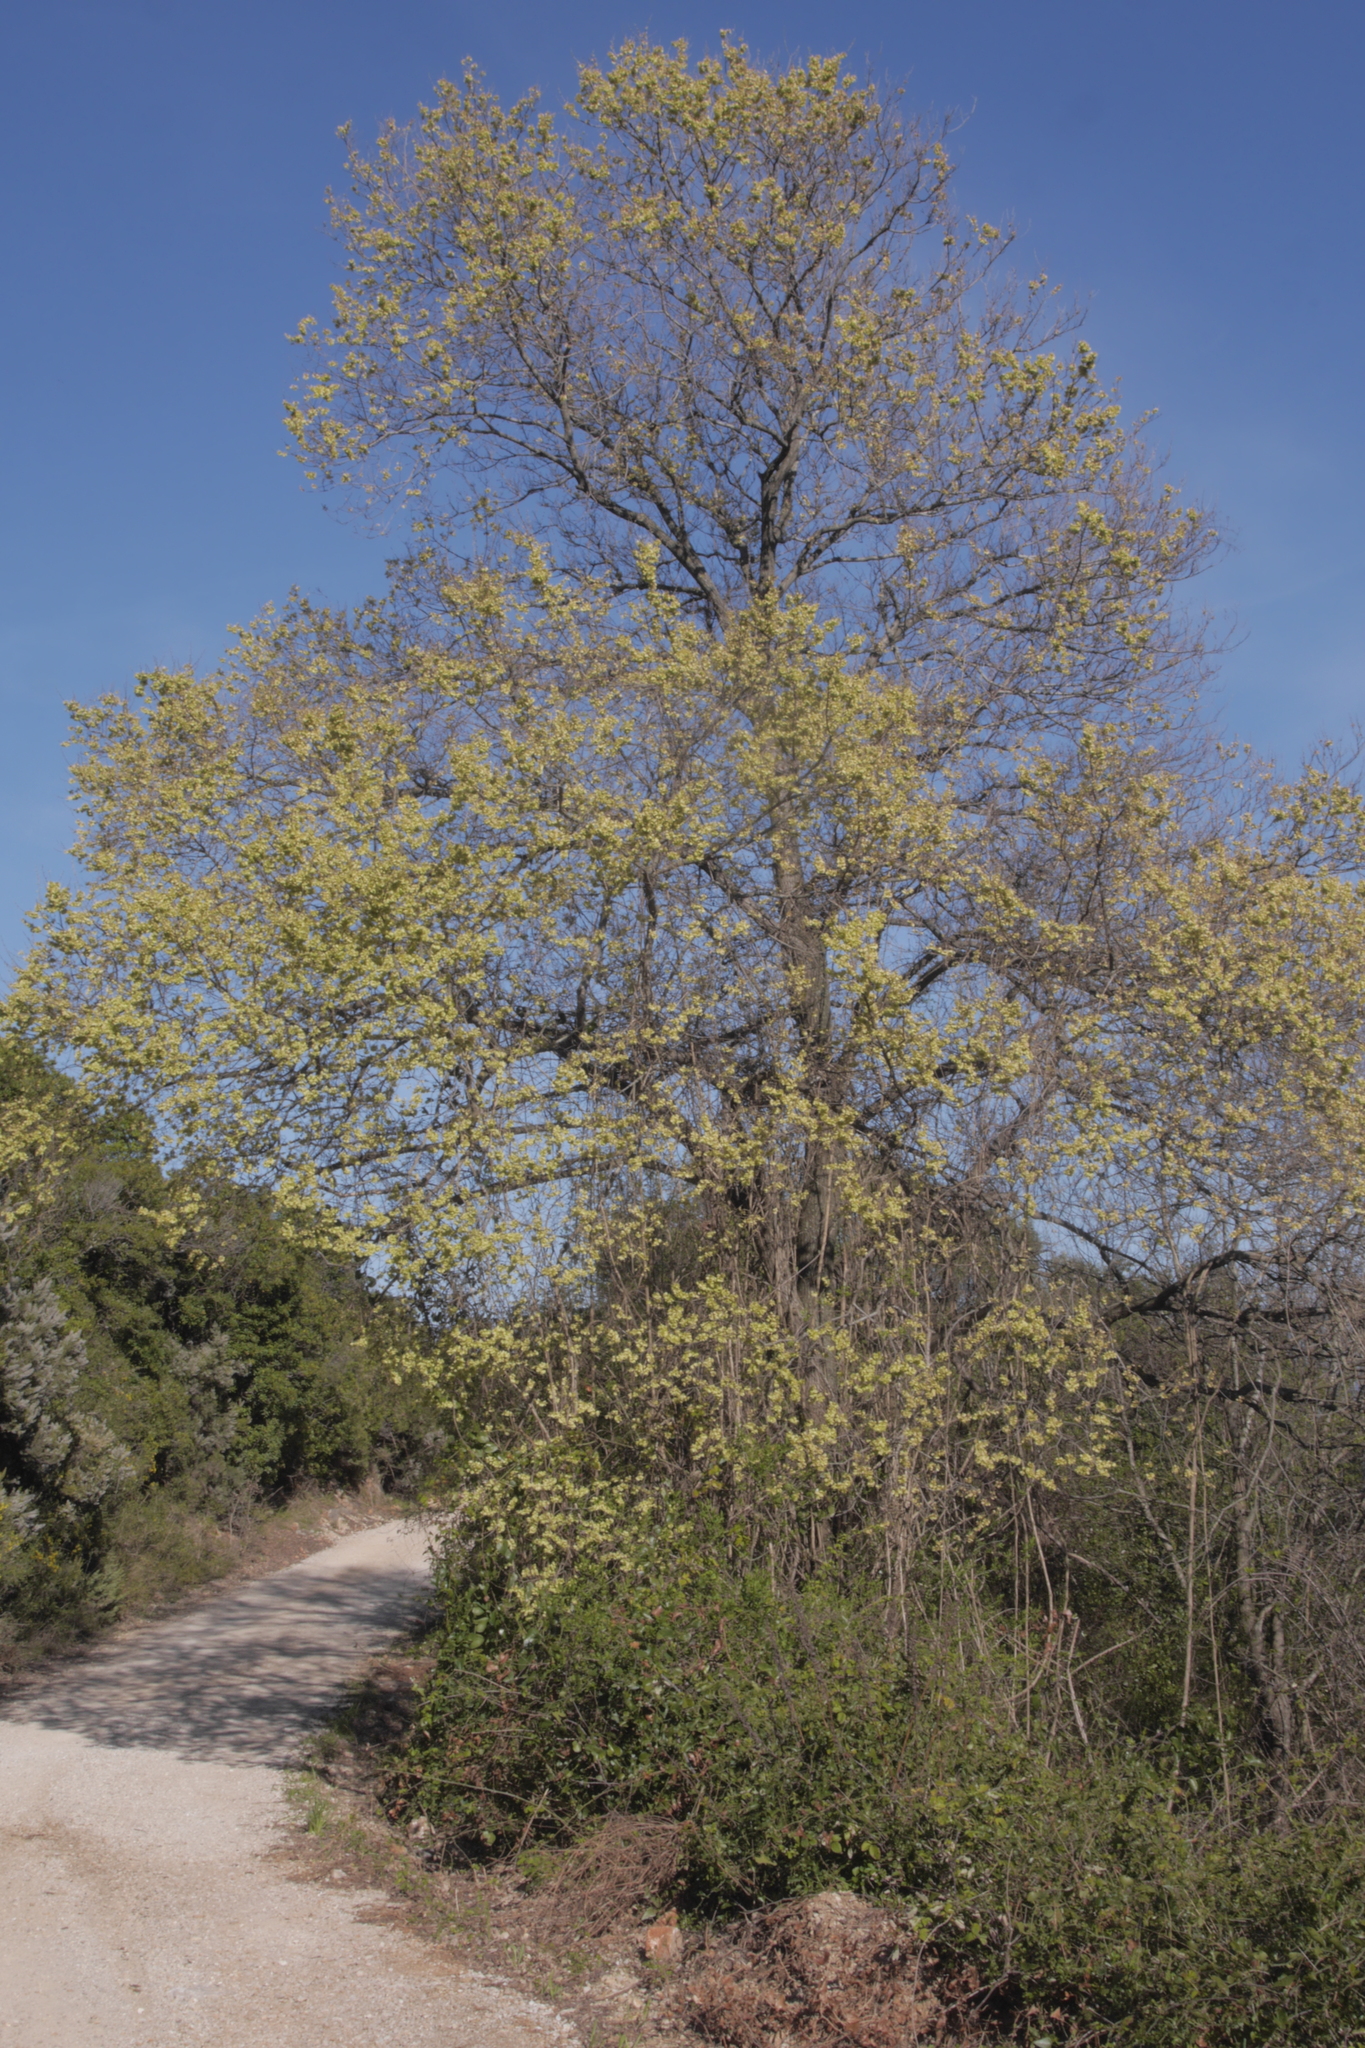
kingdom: Plantae
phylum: Tracheophyta
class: Magnoliopsida
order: Fagales
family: Betulaceae
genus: Ostrya
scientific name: Ostrya carpinifolia
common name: European hop-hornbeam
